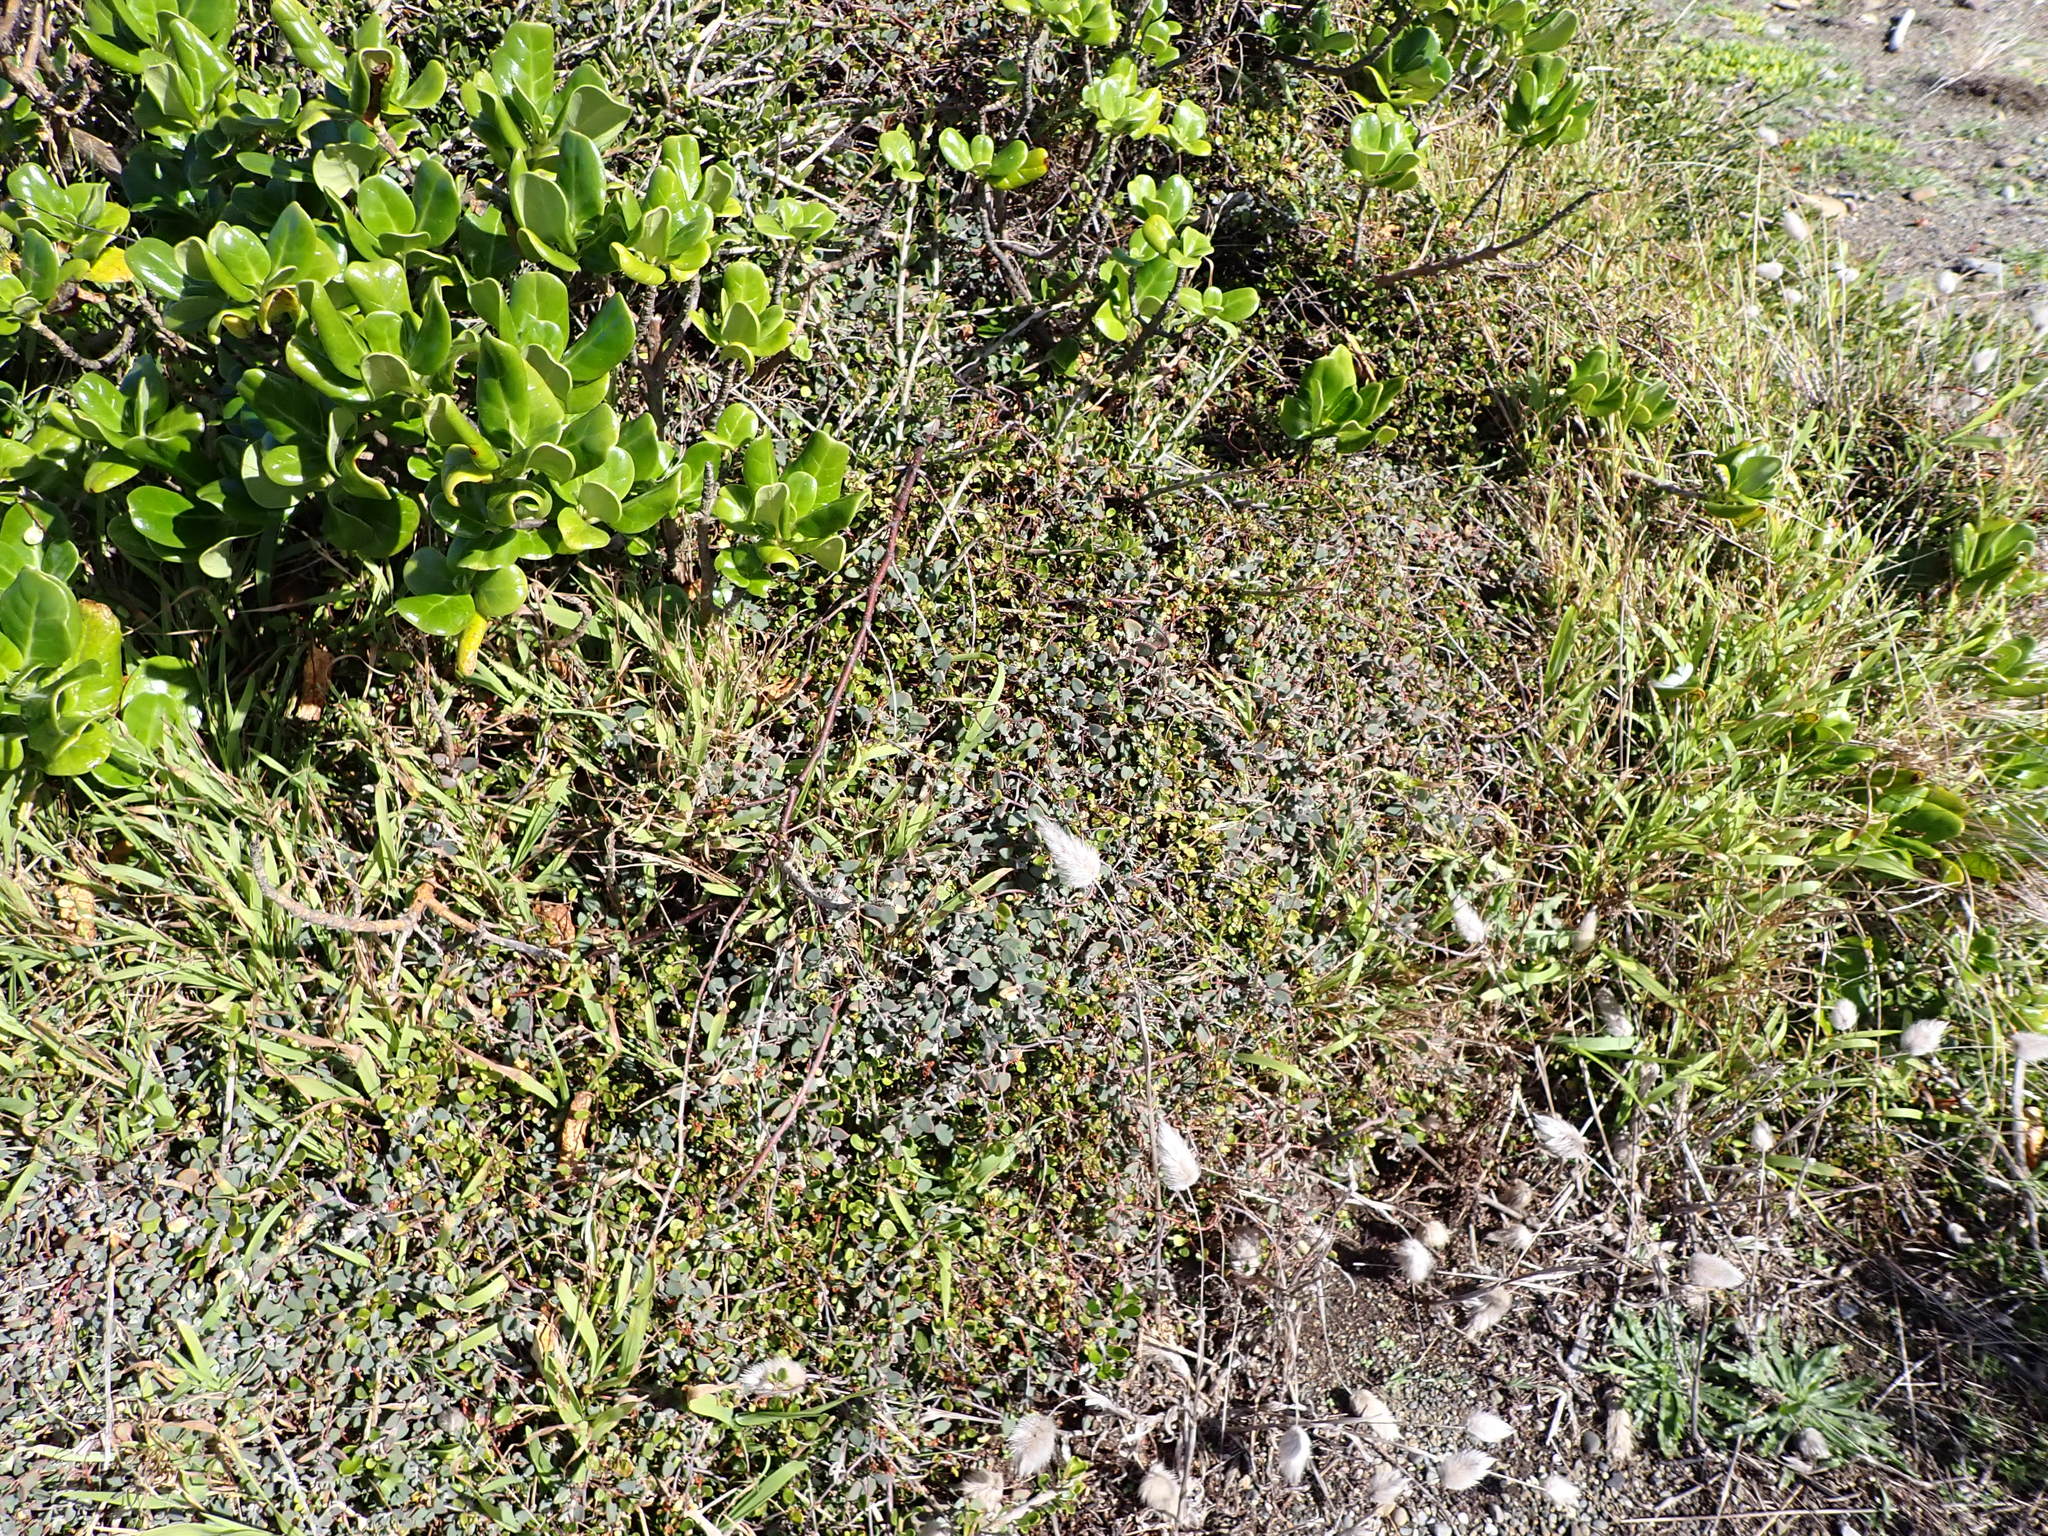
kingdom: Plantae
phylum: Tracheophyta
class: Magnoliopsida
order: Caryophyllales
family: Amaranthaceae
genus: Chenopodium
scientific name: Chenopodium triandrum
